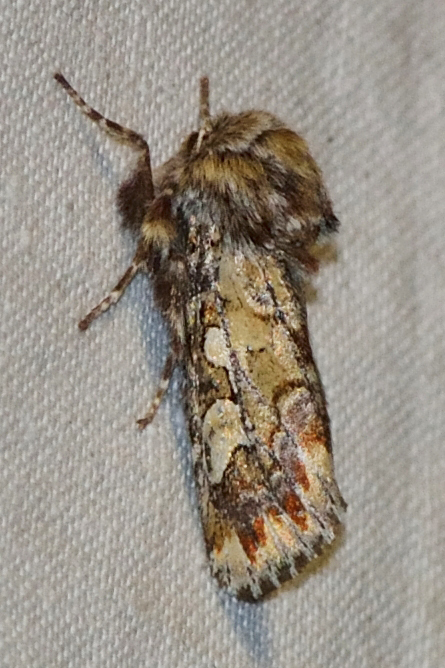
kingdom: Animalia
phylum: Arthropoda
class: Insecta
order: Lepidoptera
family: Noctuidae
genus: Panolis
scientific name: Panolis flammea
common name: Pine beauty
